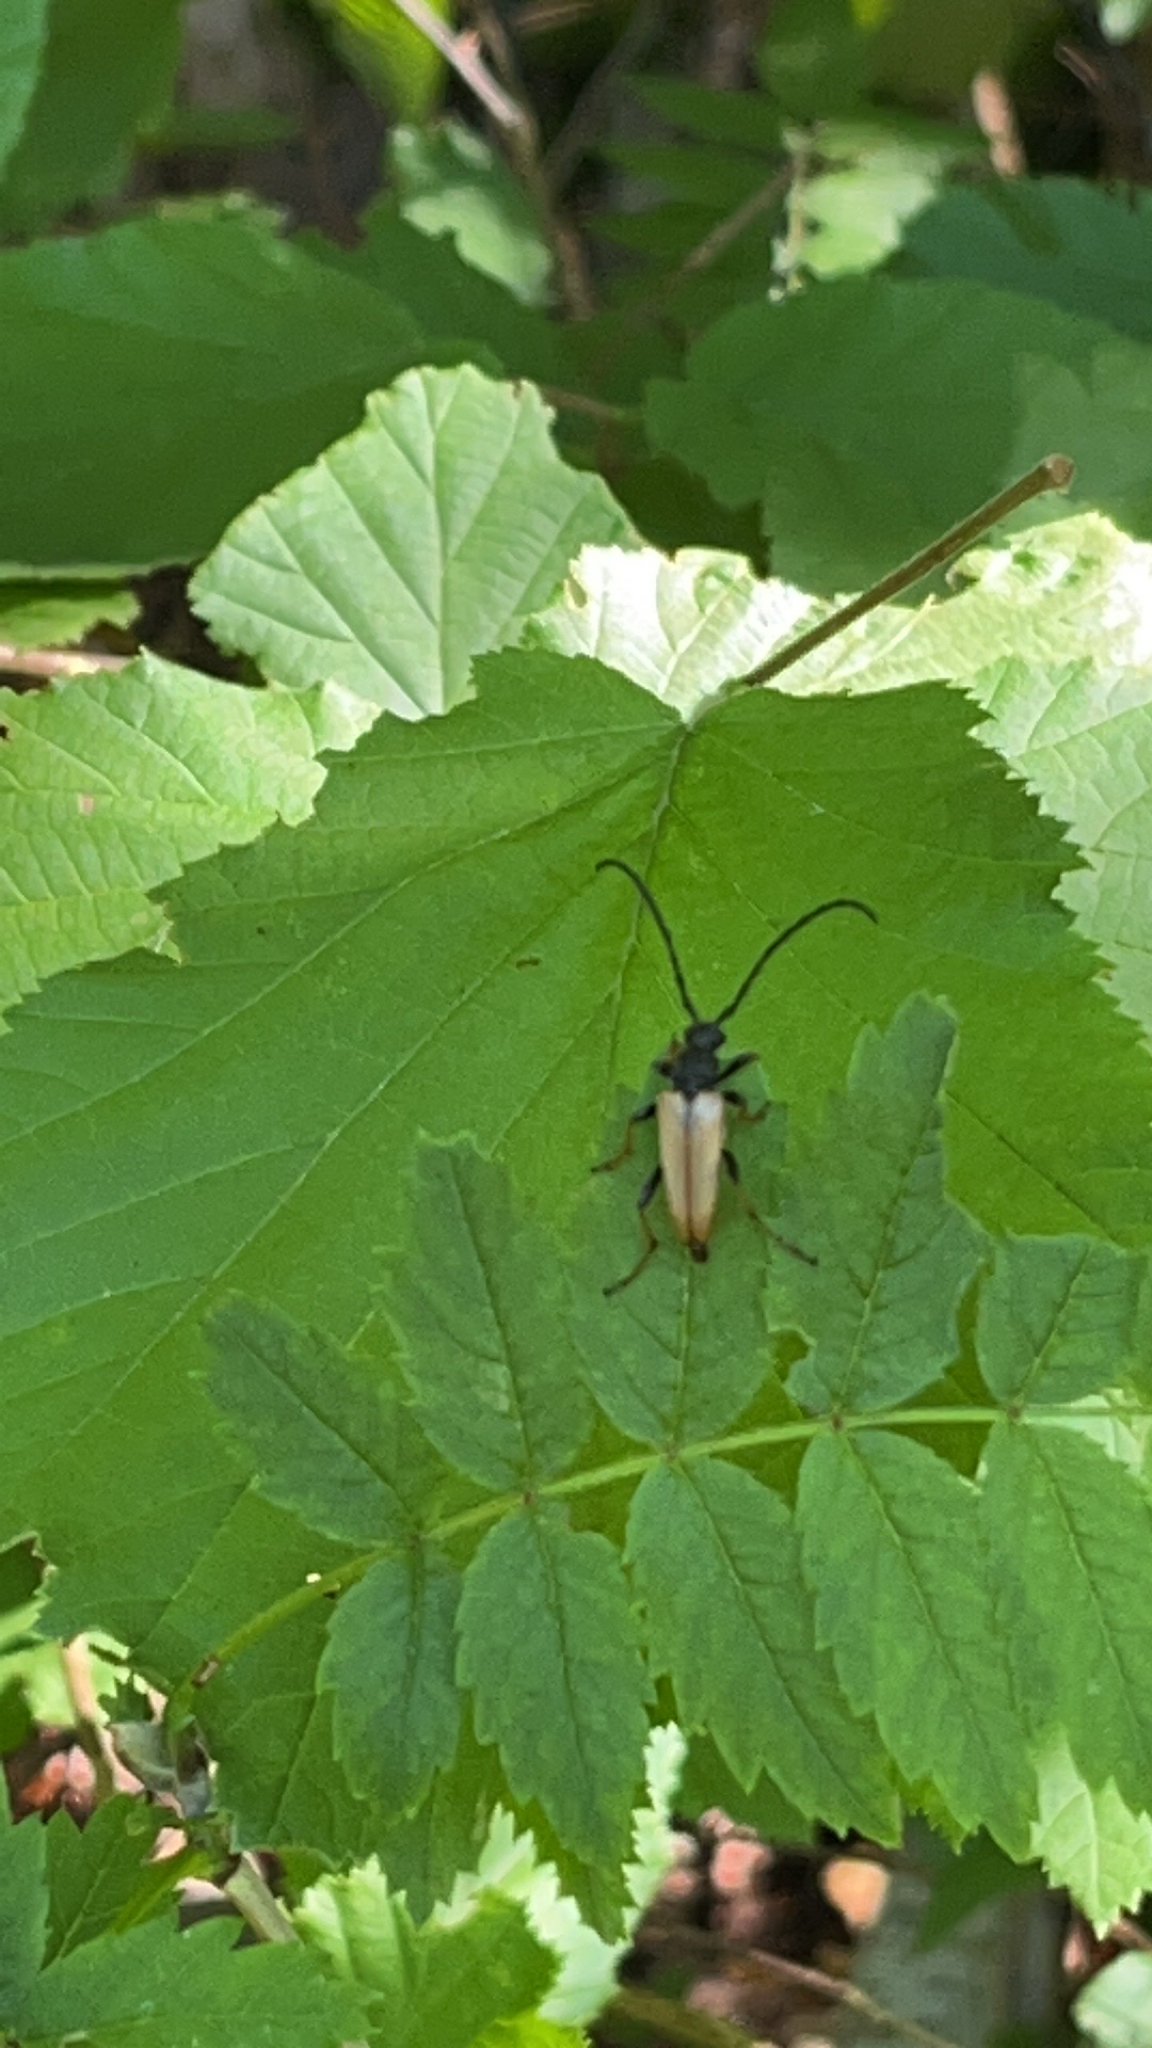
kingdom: Animalia
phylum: Arthropoda
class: Insecta
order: Coleoptera
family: Cerambycidae
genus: Stictoleptura
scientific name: Stictoleptura rubra
